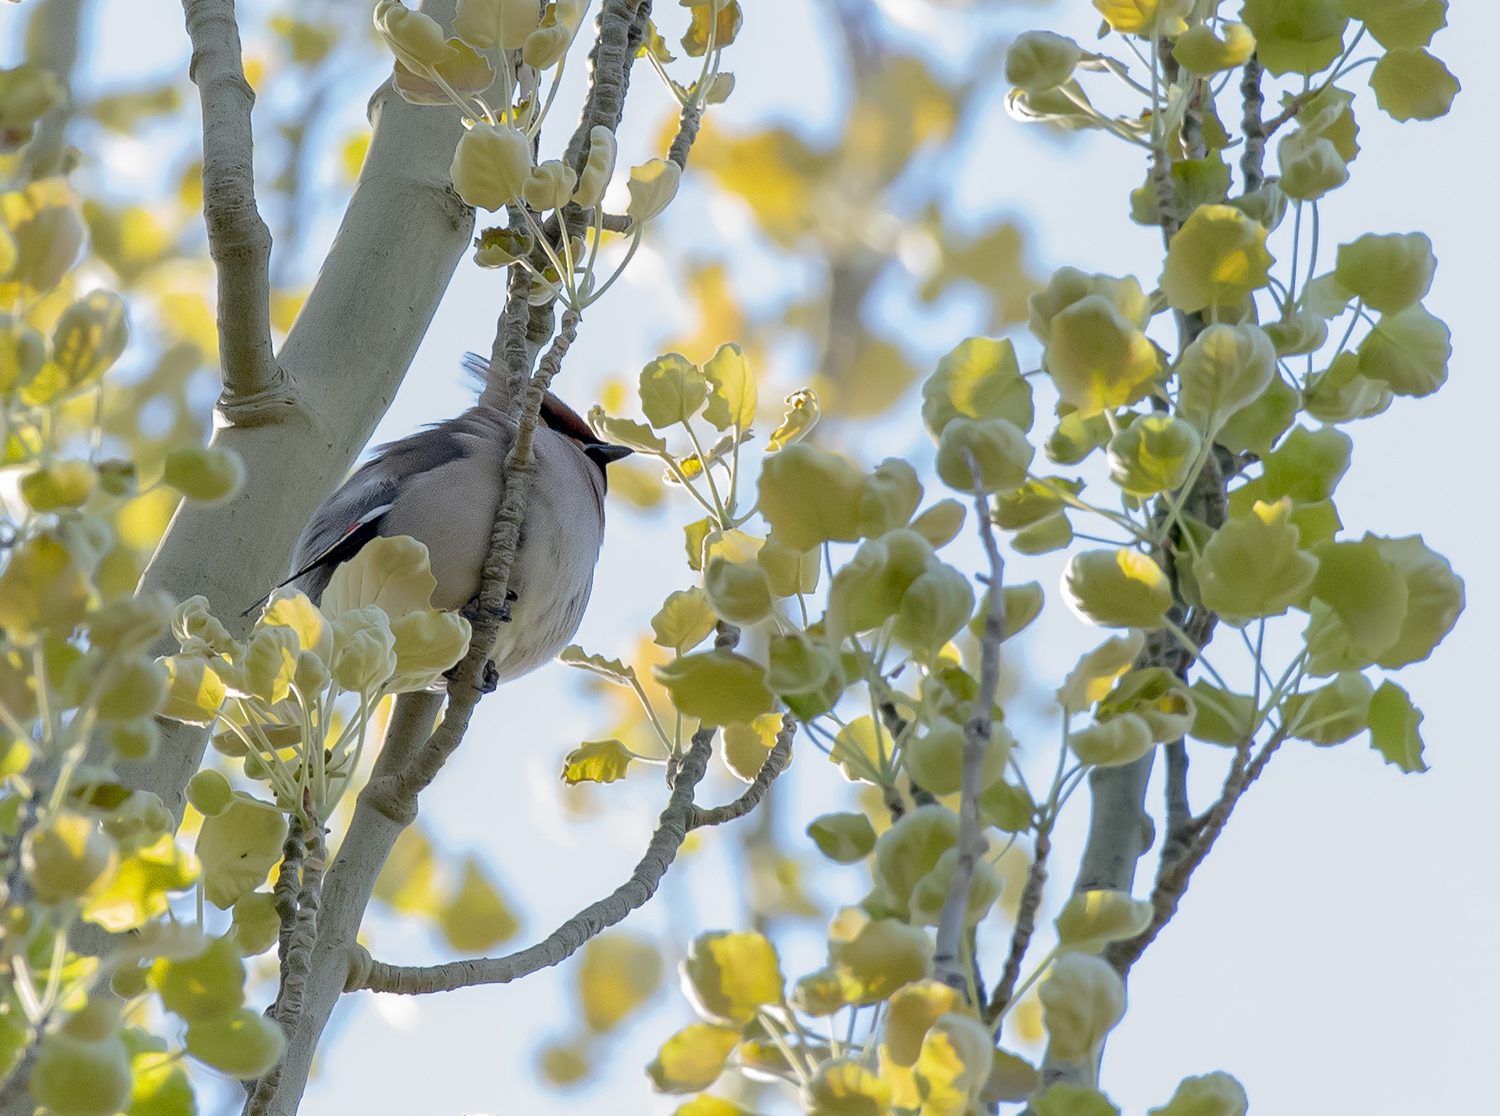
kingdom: Animalia
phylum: Chordata
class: Aves
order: Passeriformes
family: Bombycillidae
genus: Bombycilla
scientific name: Bombycilla garrulus
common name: Bohemian waxwing
